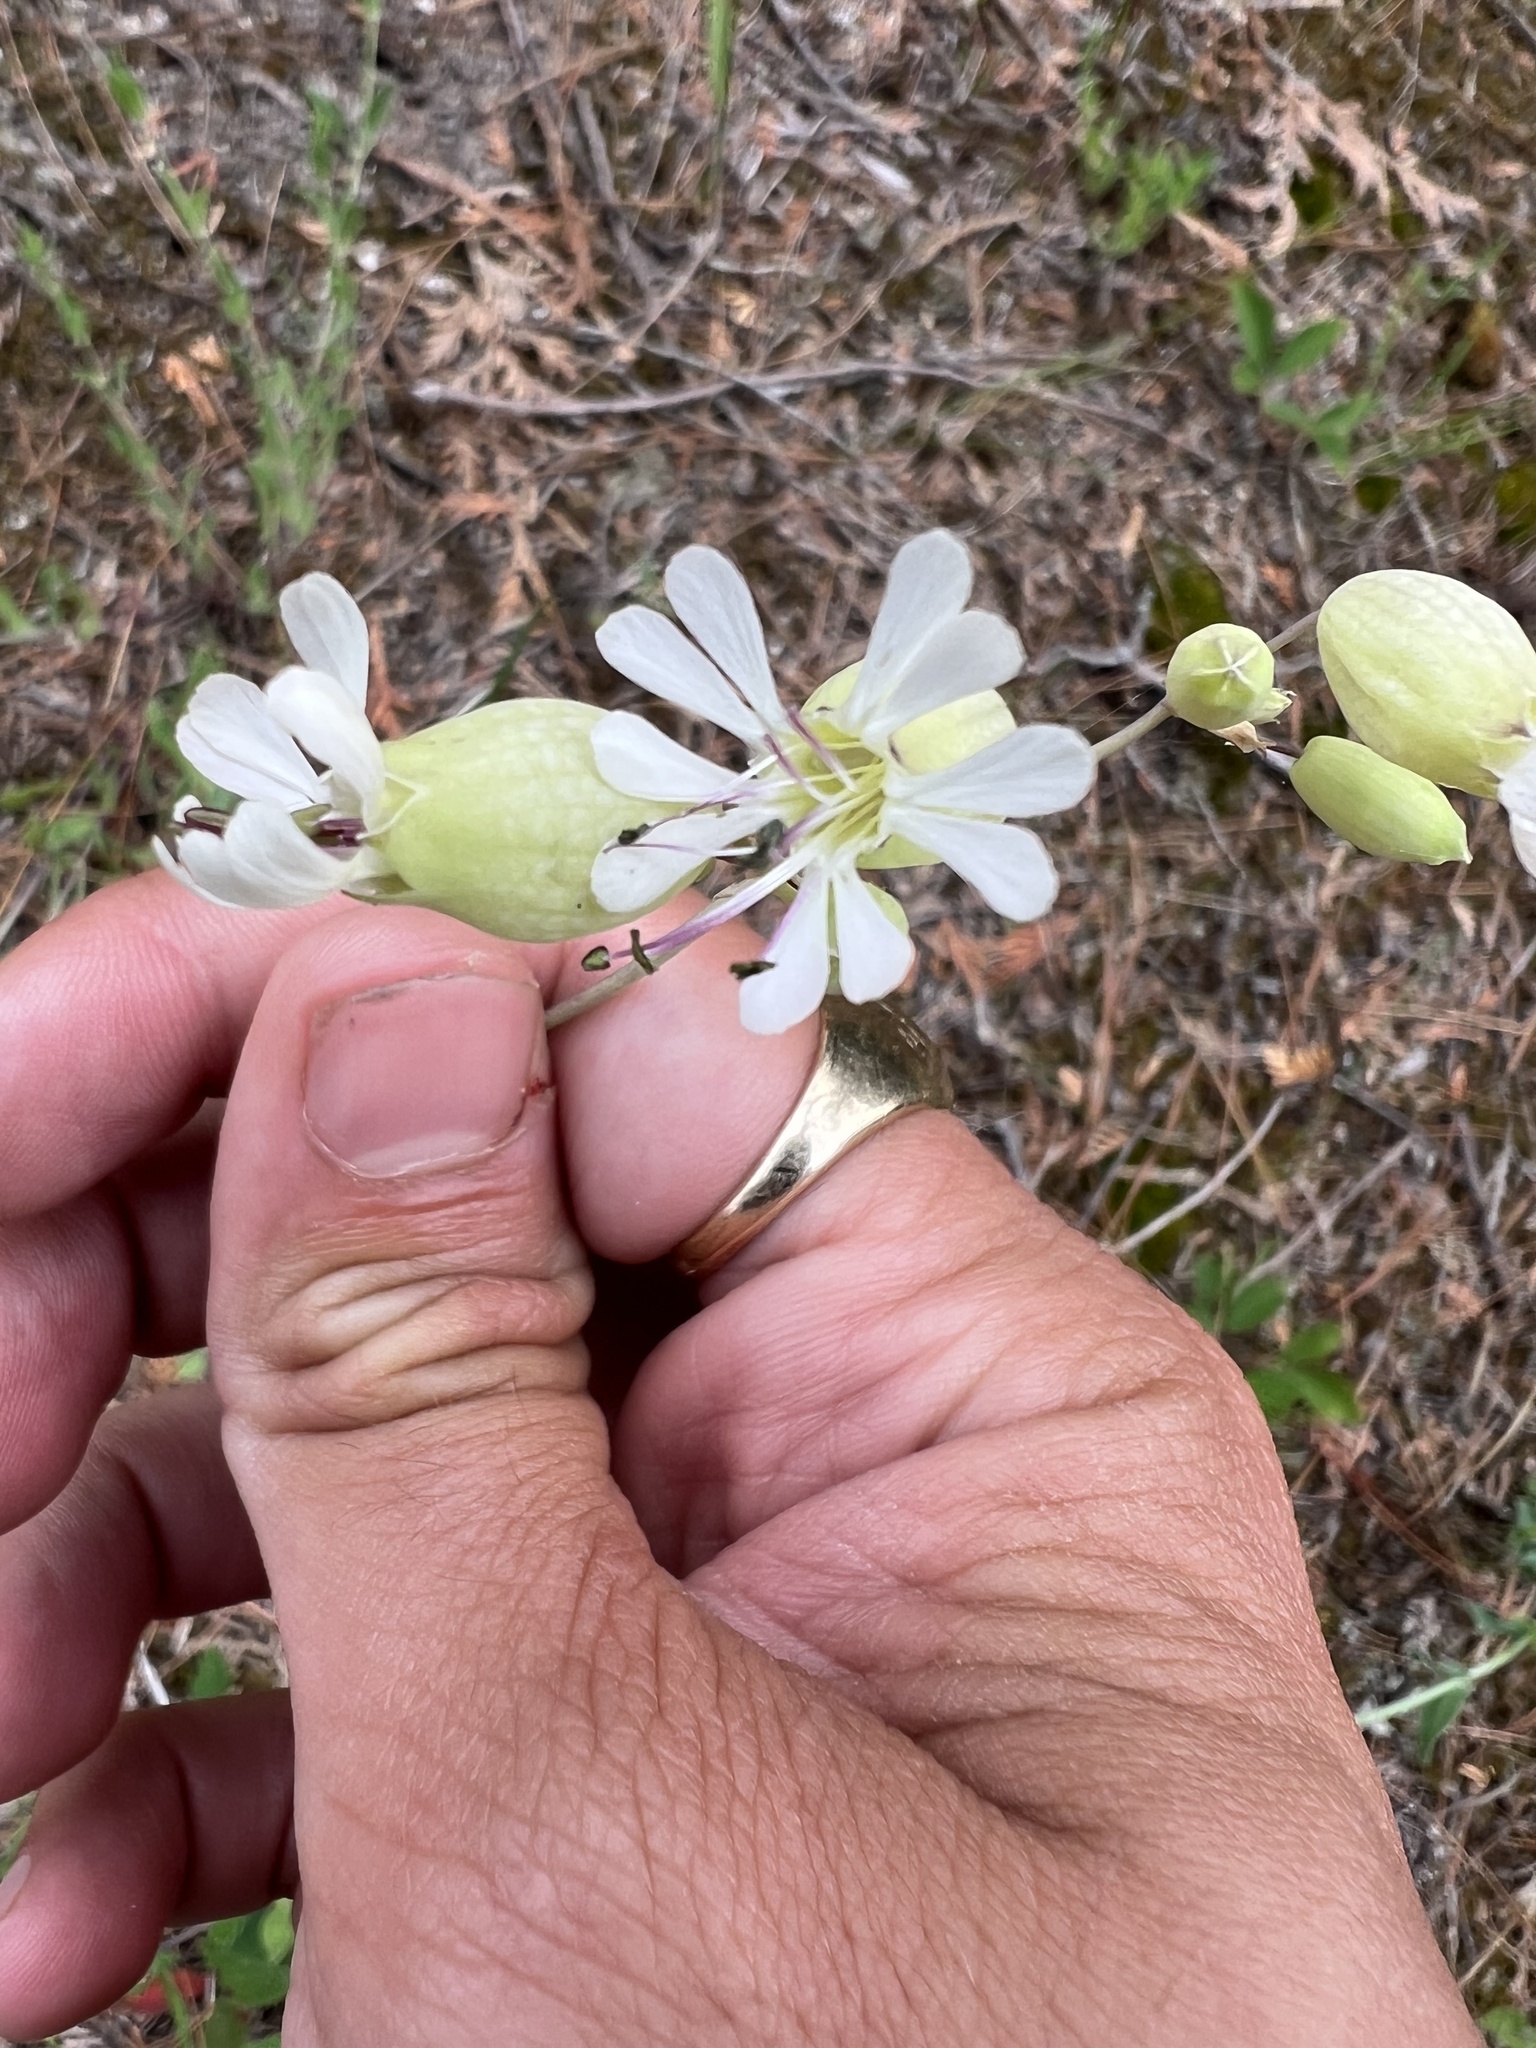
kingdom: Plantae
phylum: Tracheophyta
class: Magnoliopsida
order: Caryophyllales
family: Caryophyllaceae
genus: Silene
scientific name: Silene vulgaris
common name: Bladder campion
